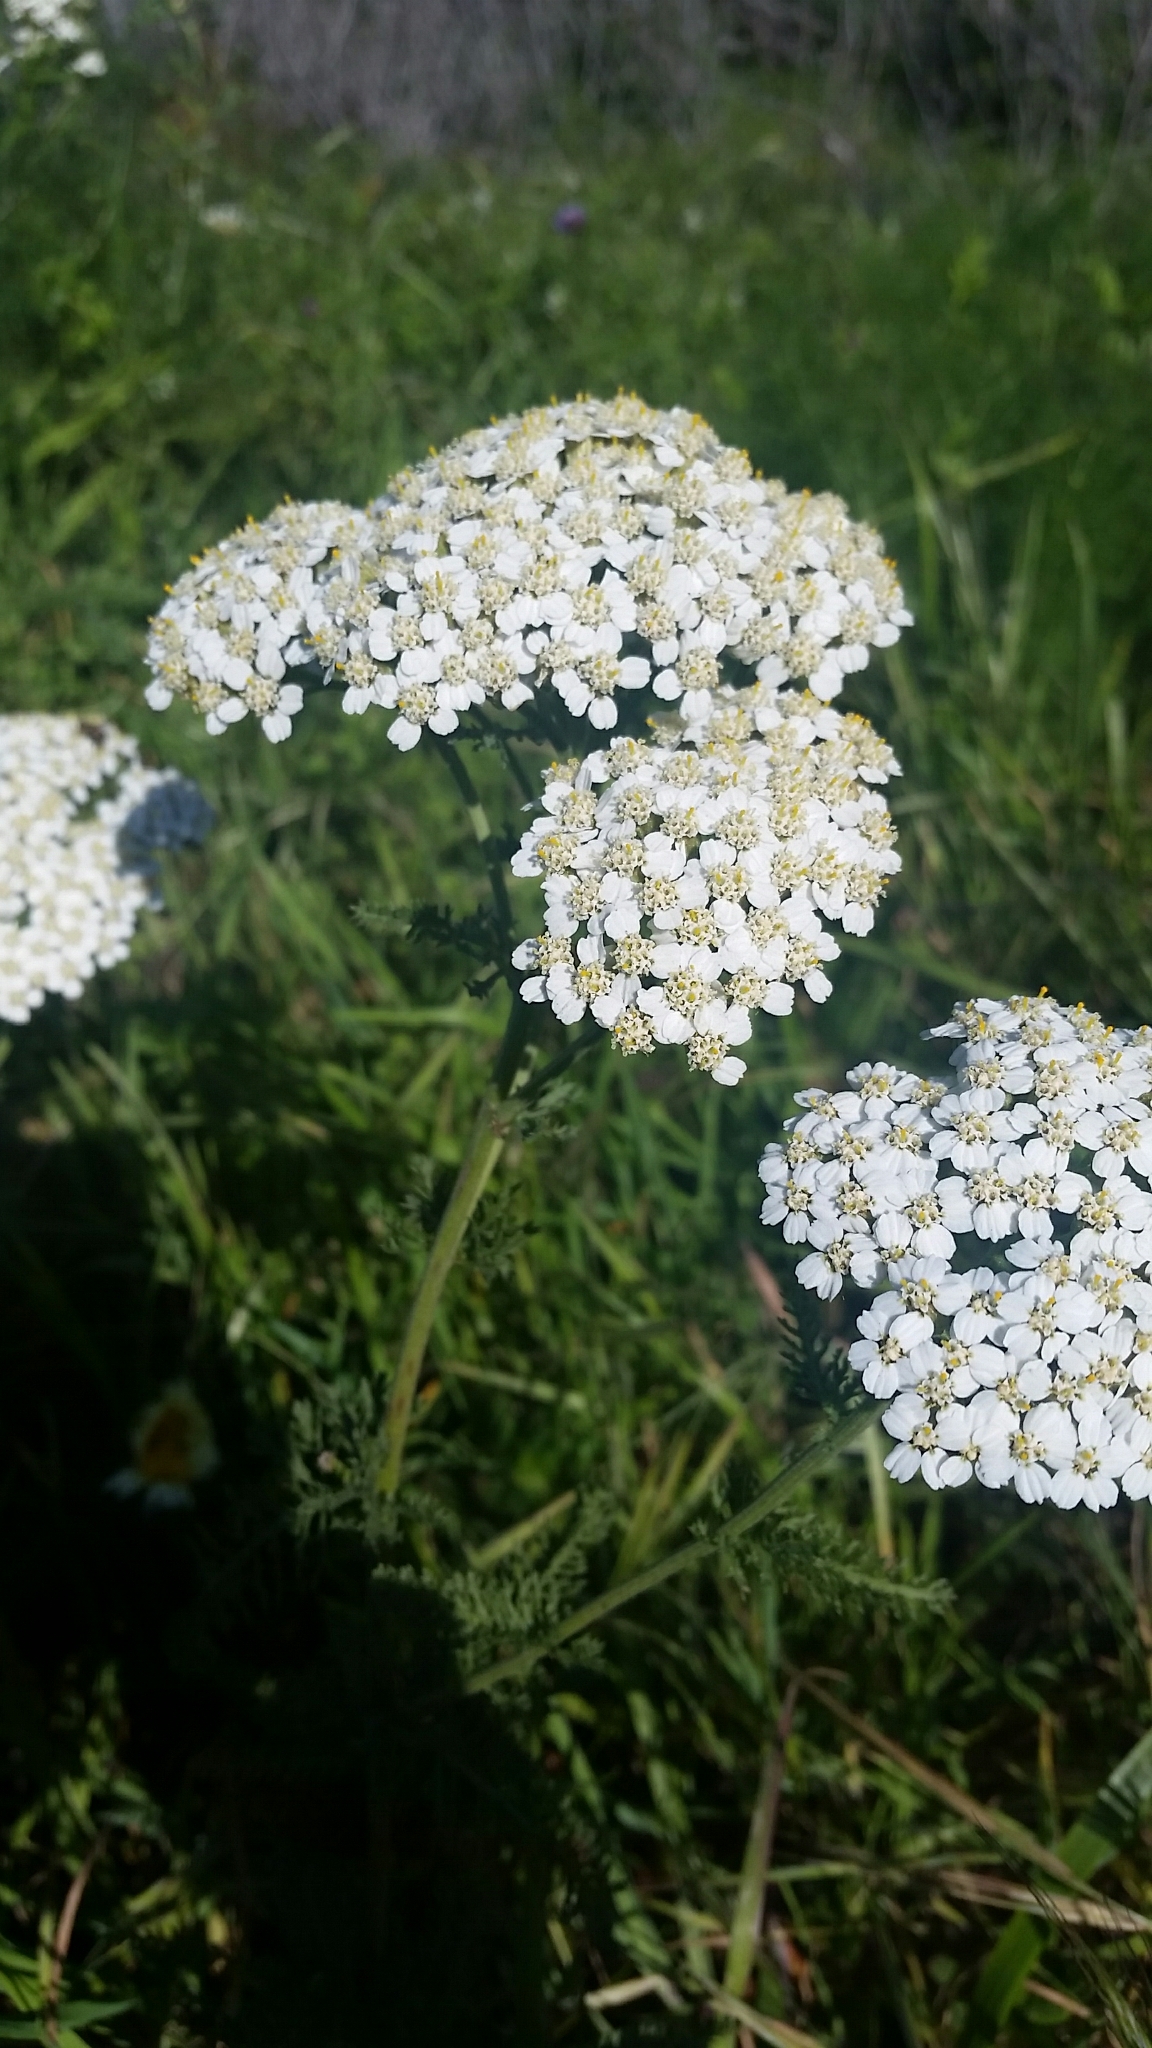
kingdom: Plantae
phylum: Tracheophyta
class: Magnoliopsida
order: Asterales
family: Asteraceae
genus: Achillea
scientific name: Achillea millefolium
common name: Yarrow
